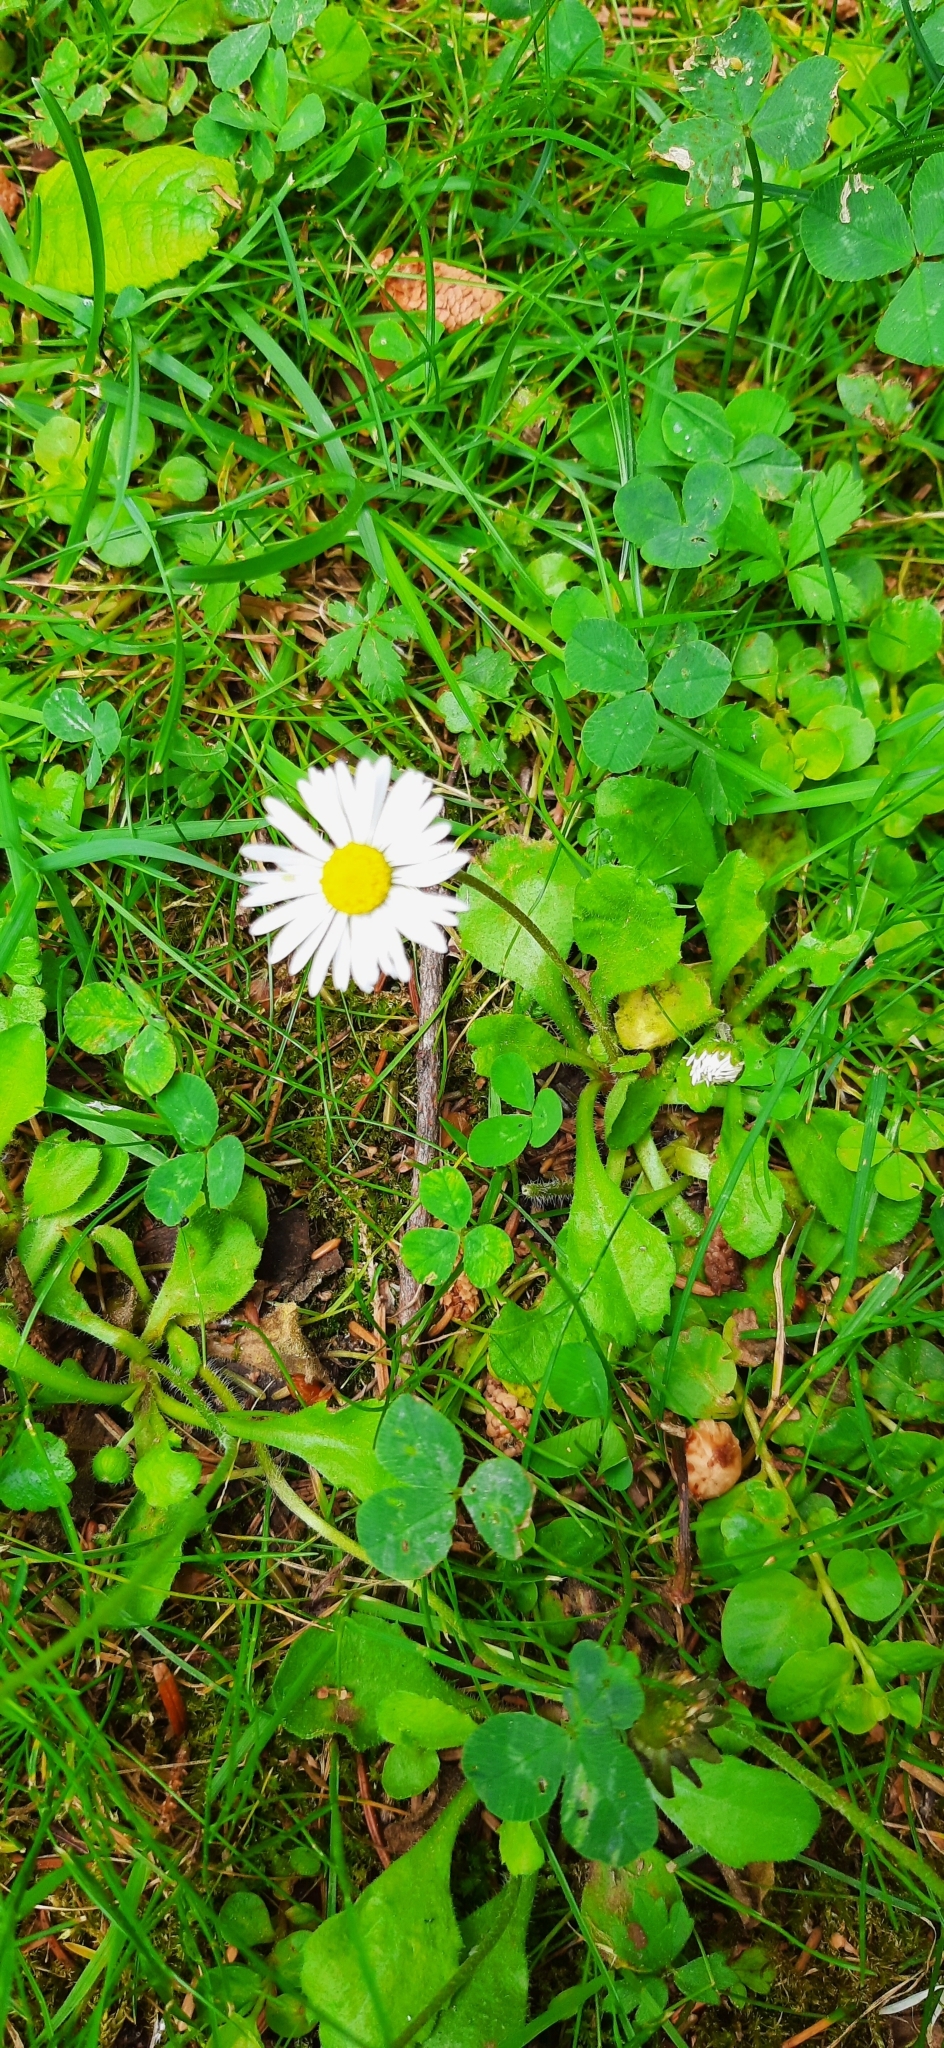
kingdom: Plantae
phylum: Tracheophyta
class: Magnoliopsida
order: Asterales
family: Asteraceae
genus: Bellis
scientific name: Bellis perennis
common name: Lawndaisy
